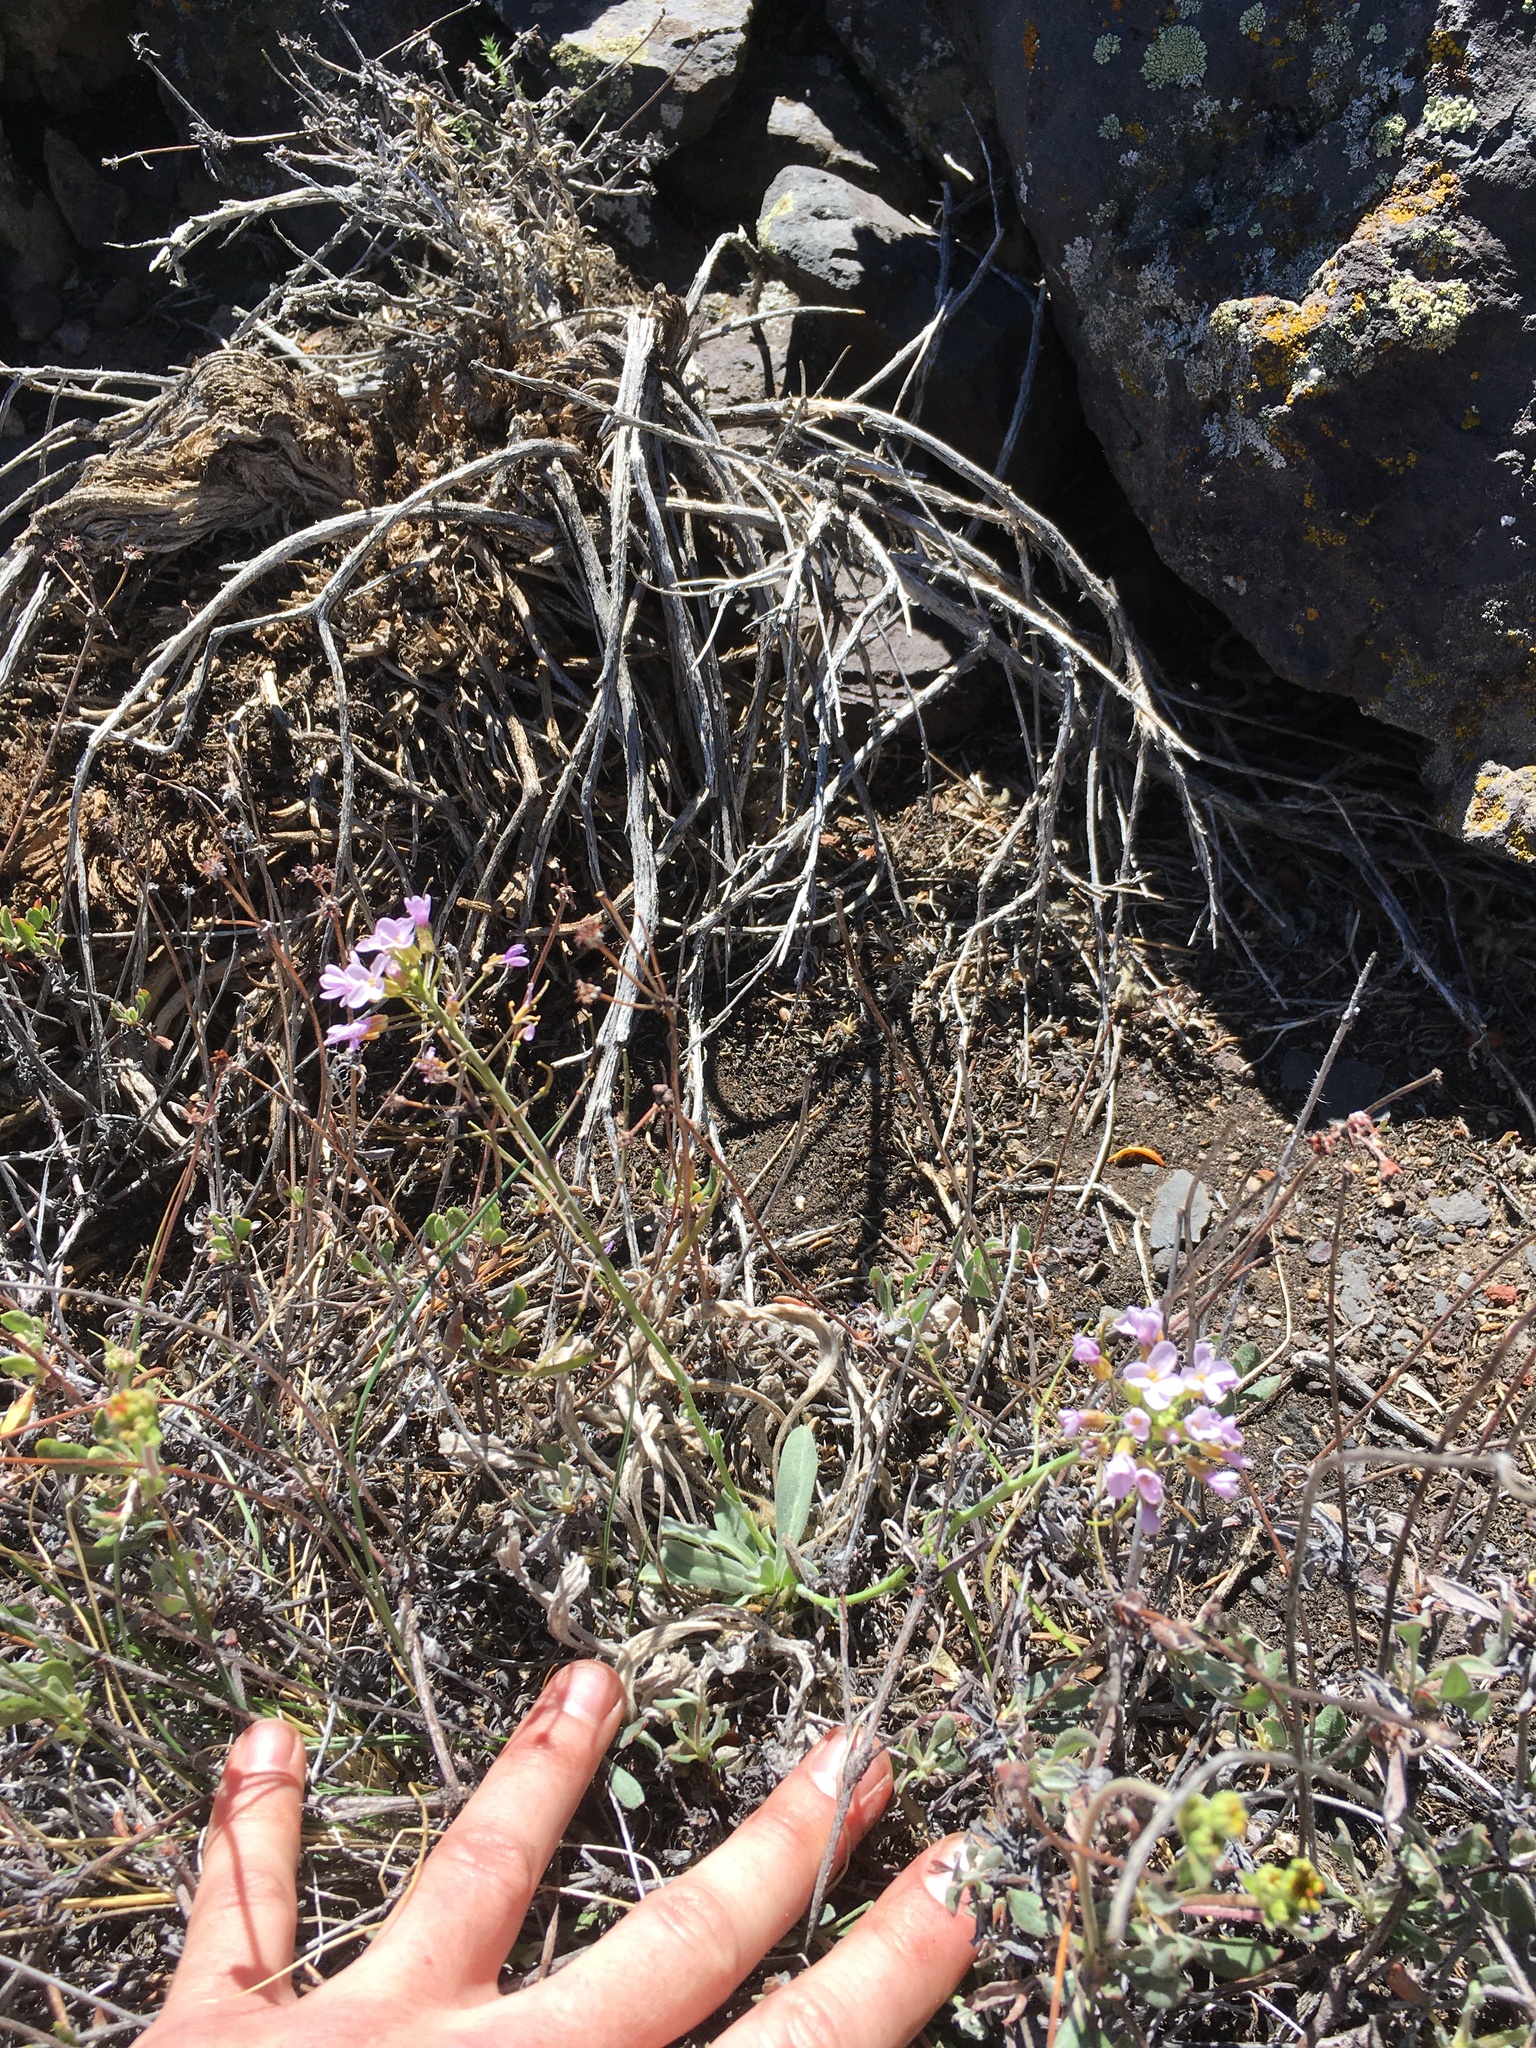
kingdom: Plantae
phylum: Tracheophyta
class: Magnoliopsida
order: Brassicales
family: Brassicaceae
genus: Phoenicaulis
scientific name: Phoenicaulis cheiranthoides
